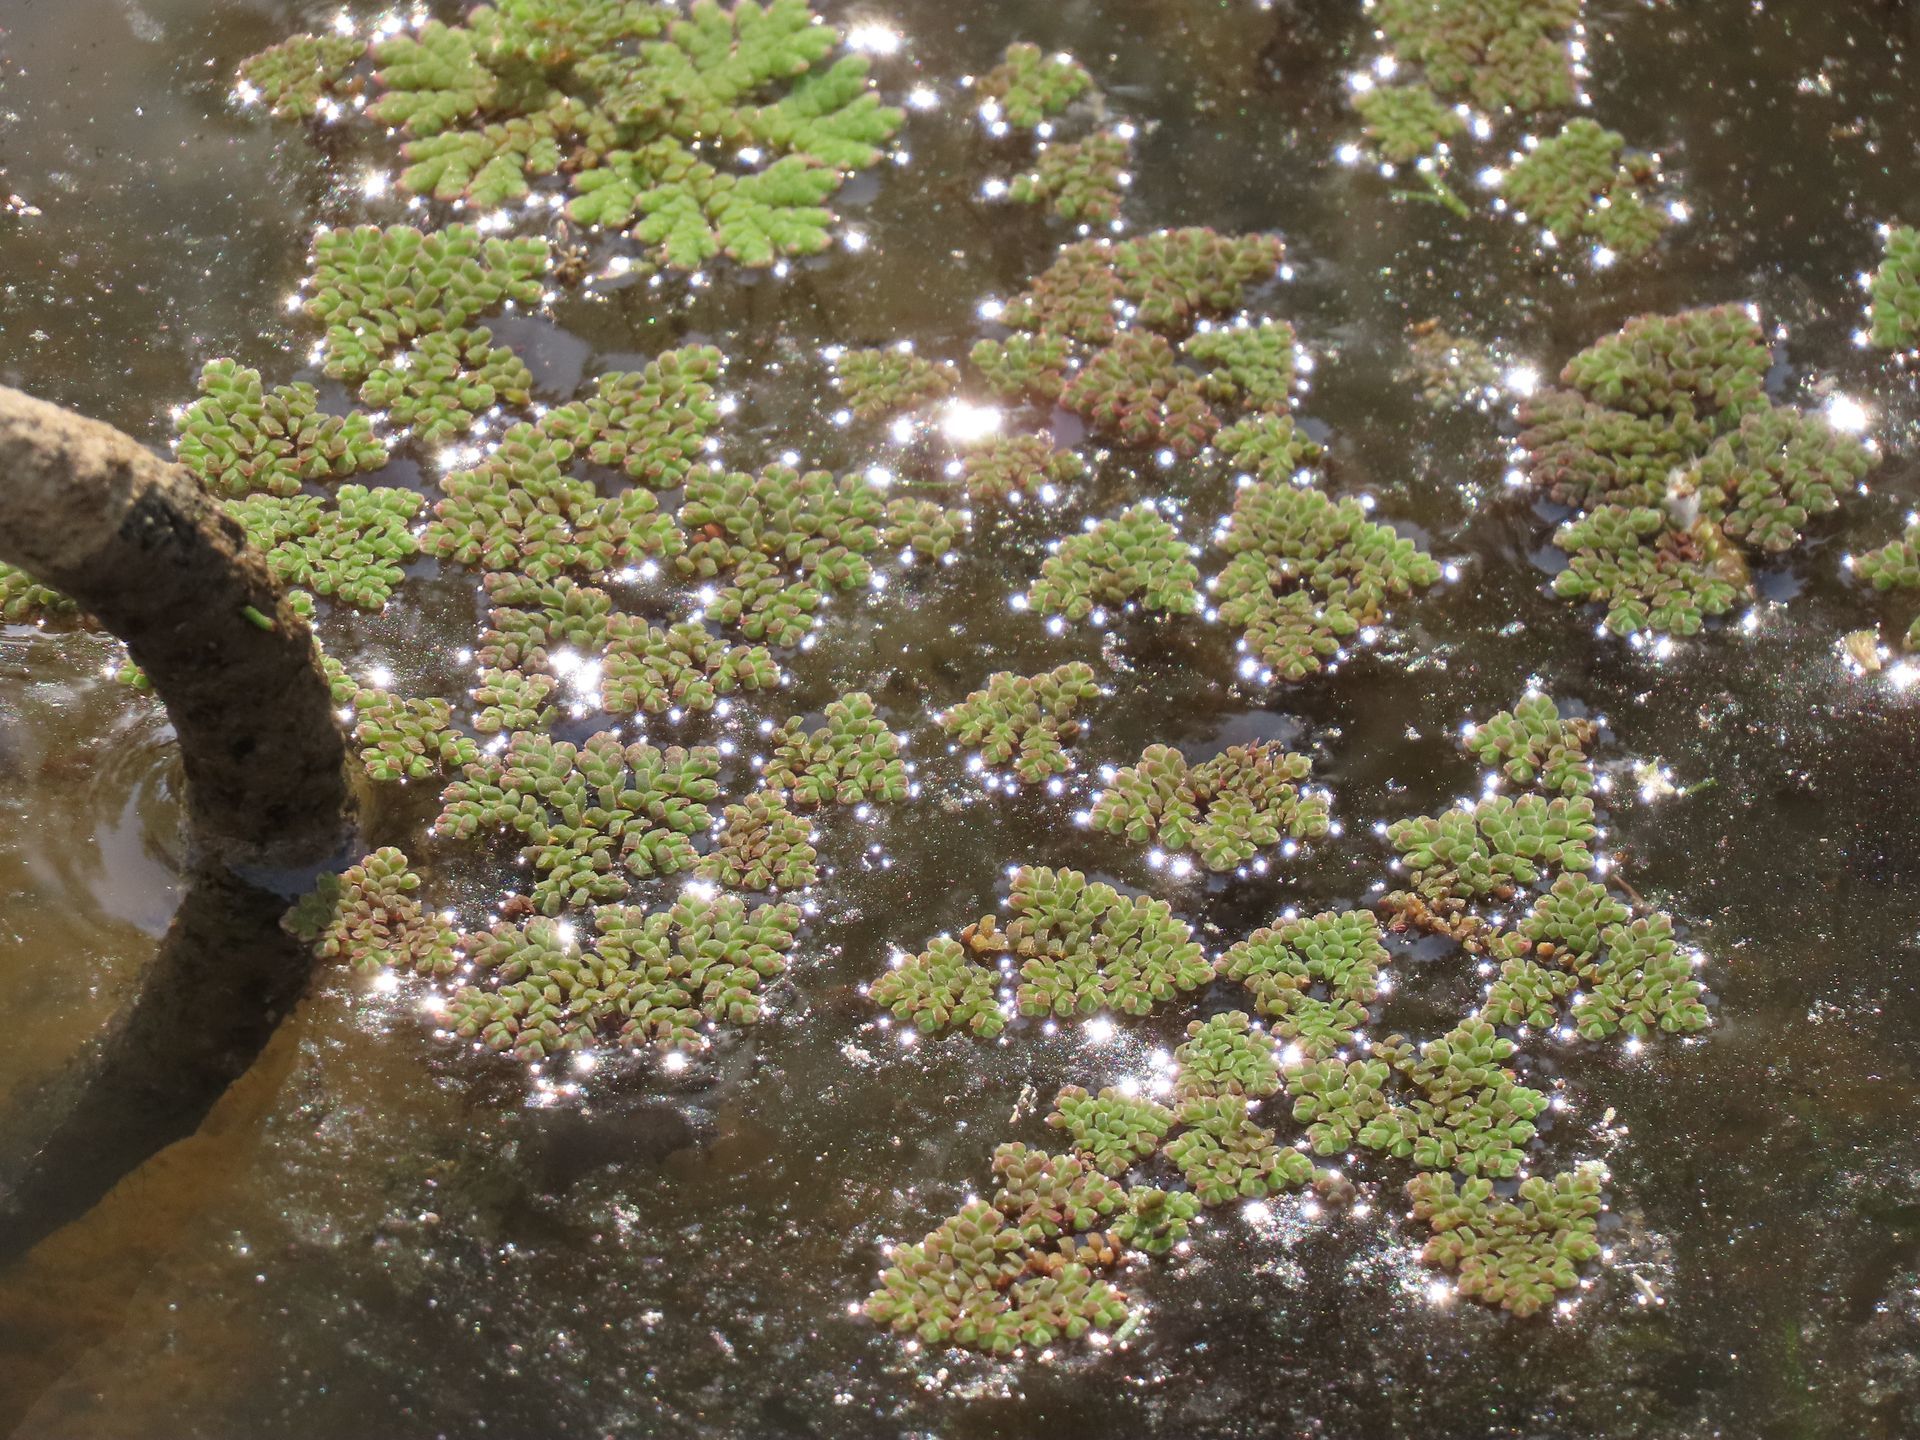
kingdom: Plantae
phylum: Tracheophyta
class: Polypodiopsida
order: Salviniales
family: Salviniaceae
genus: Azolla
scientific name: Azolla pinnata
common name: Ferny azolla
